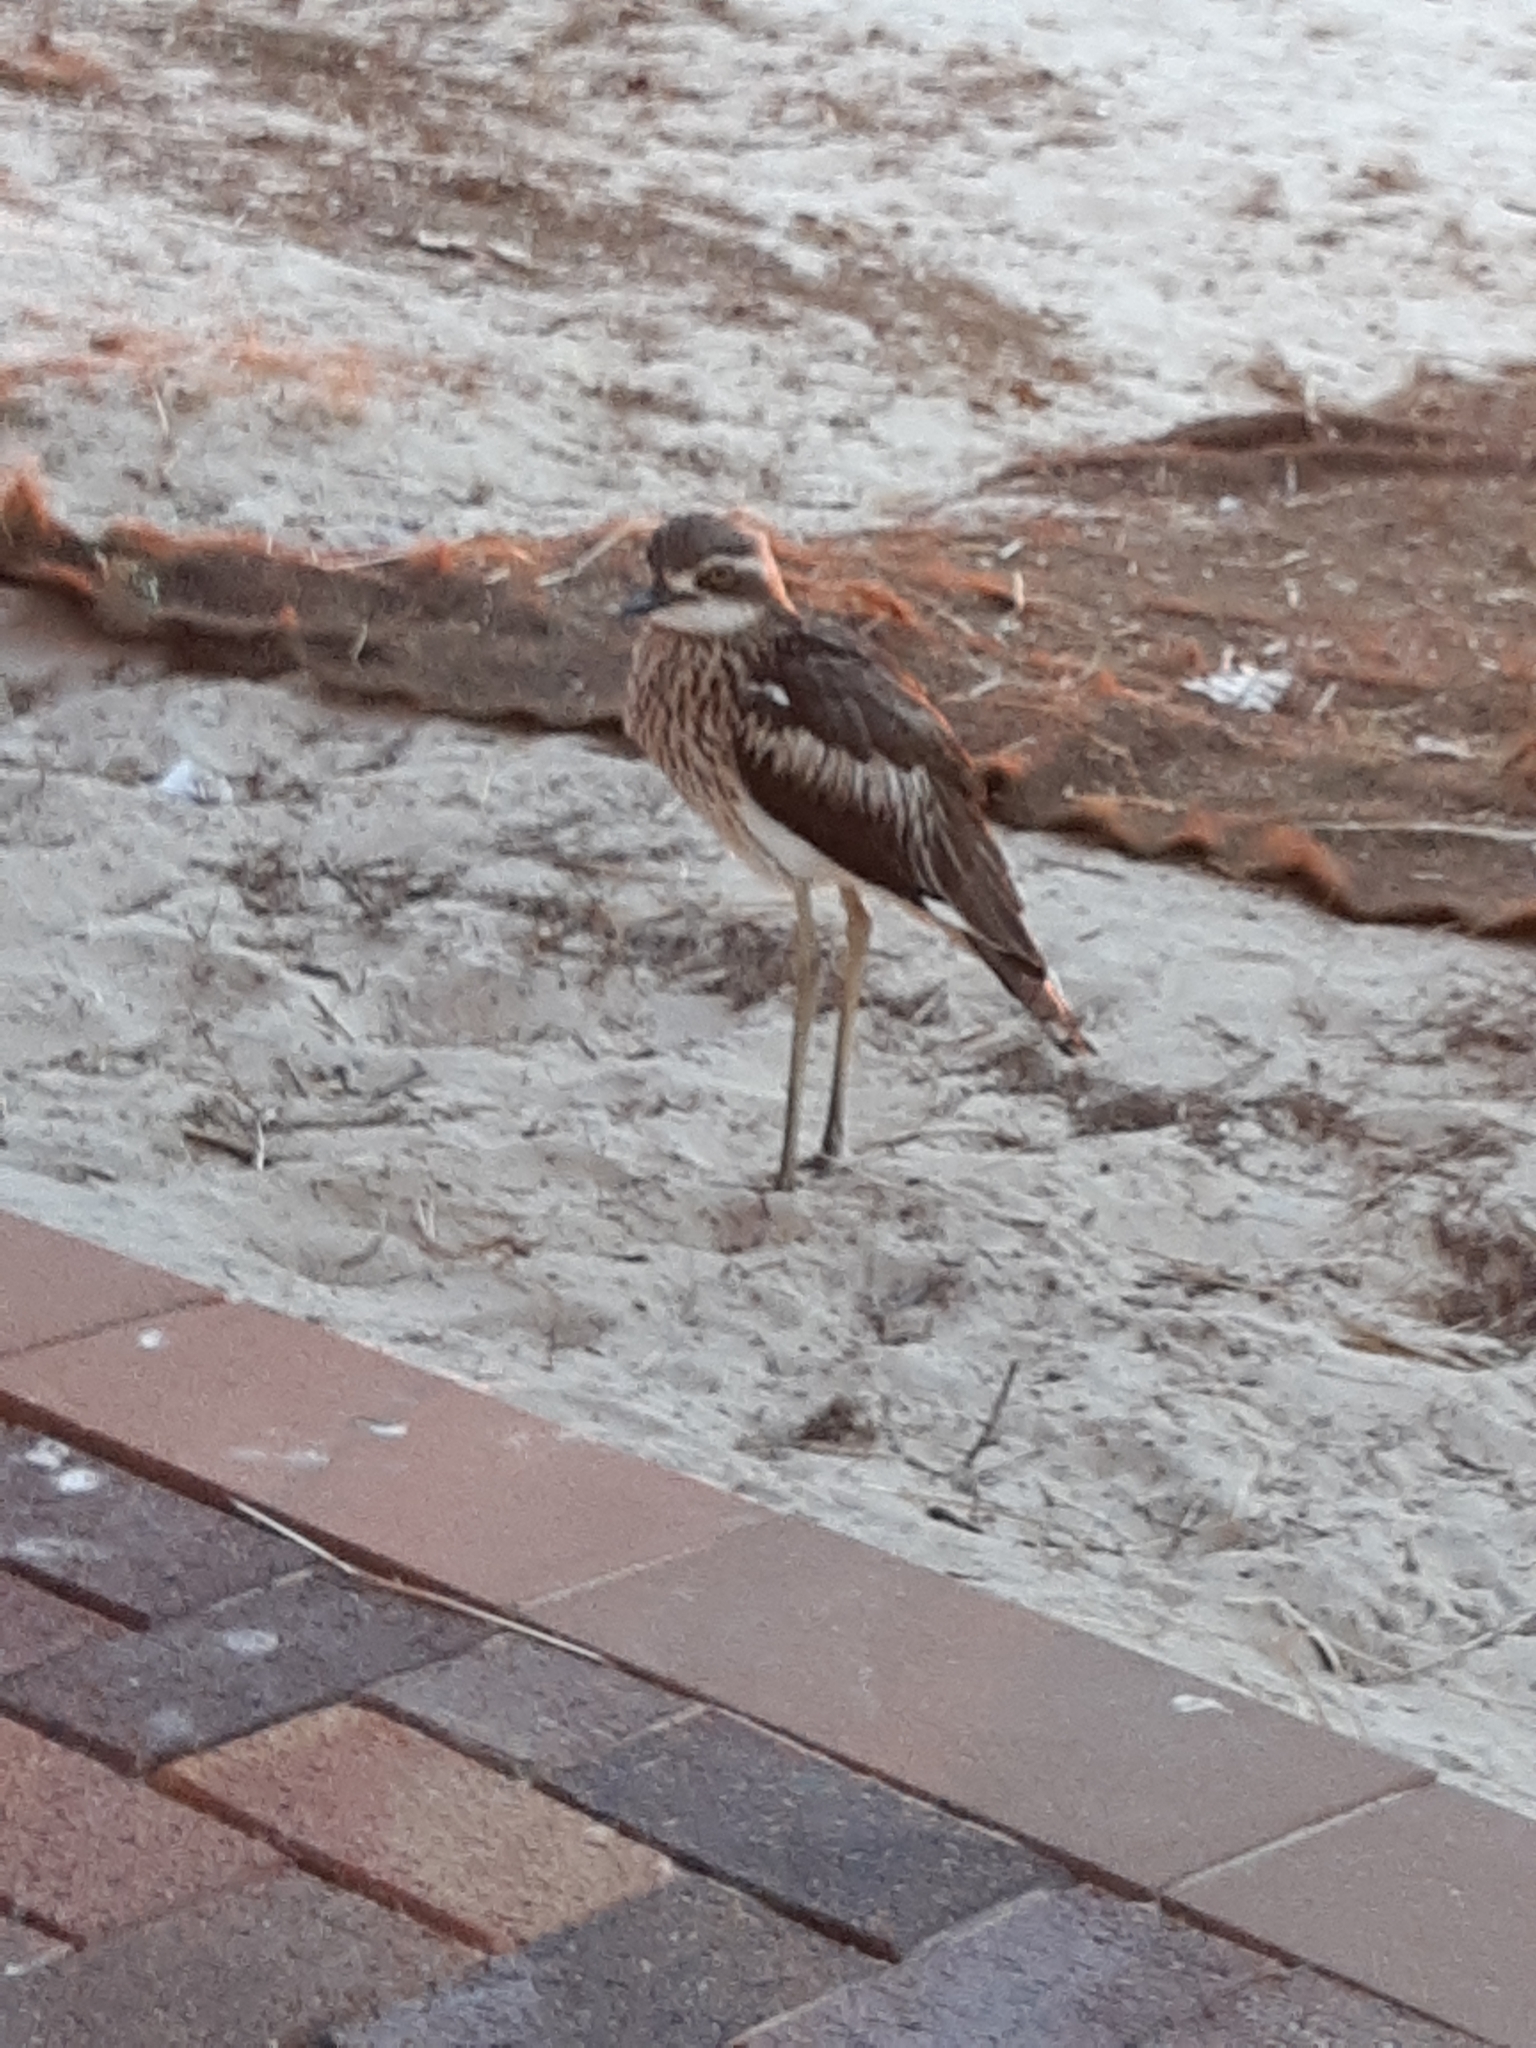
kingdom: Animalia
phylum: Chordata
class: Aves
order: Charadriiformes
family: Burhinidae
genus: Burhinus
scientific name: Burhinus grallarius
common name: Bush stone-curlew
